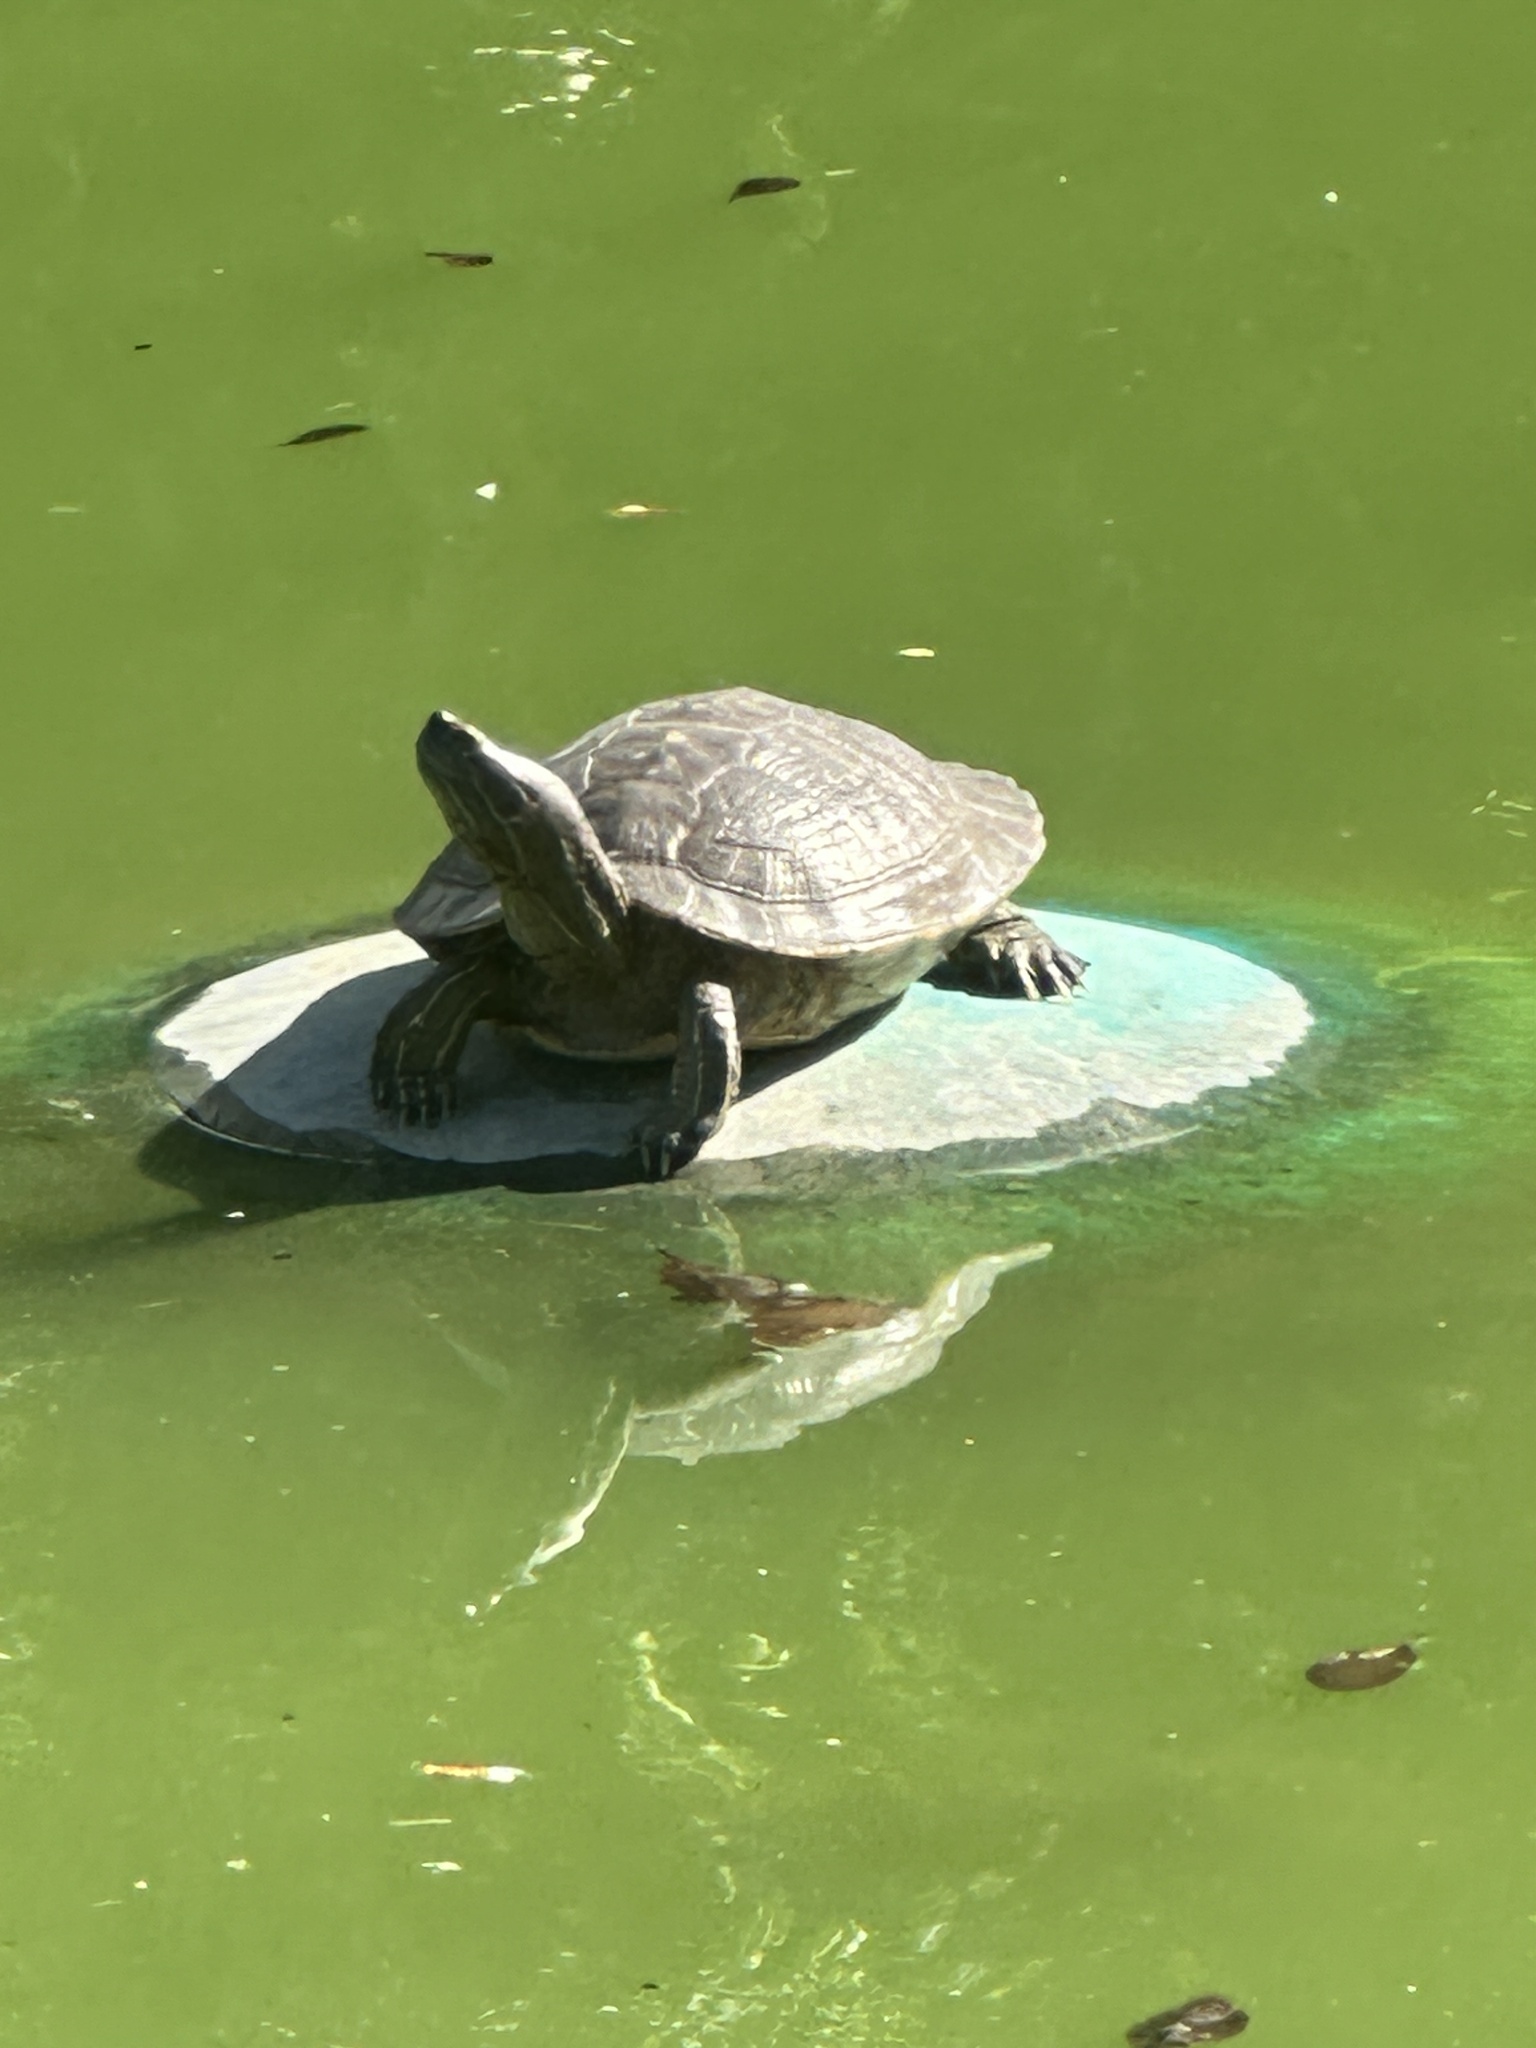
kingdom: Animalia
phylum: Chordata
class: Testudines
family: Emydidae
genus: Trachemys
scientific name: Trachemys stejnegeri
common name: Puerto rican slider
